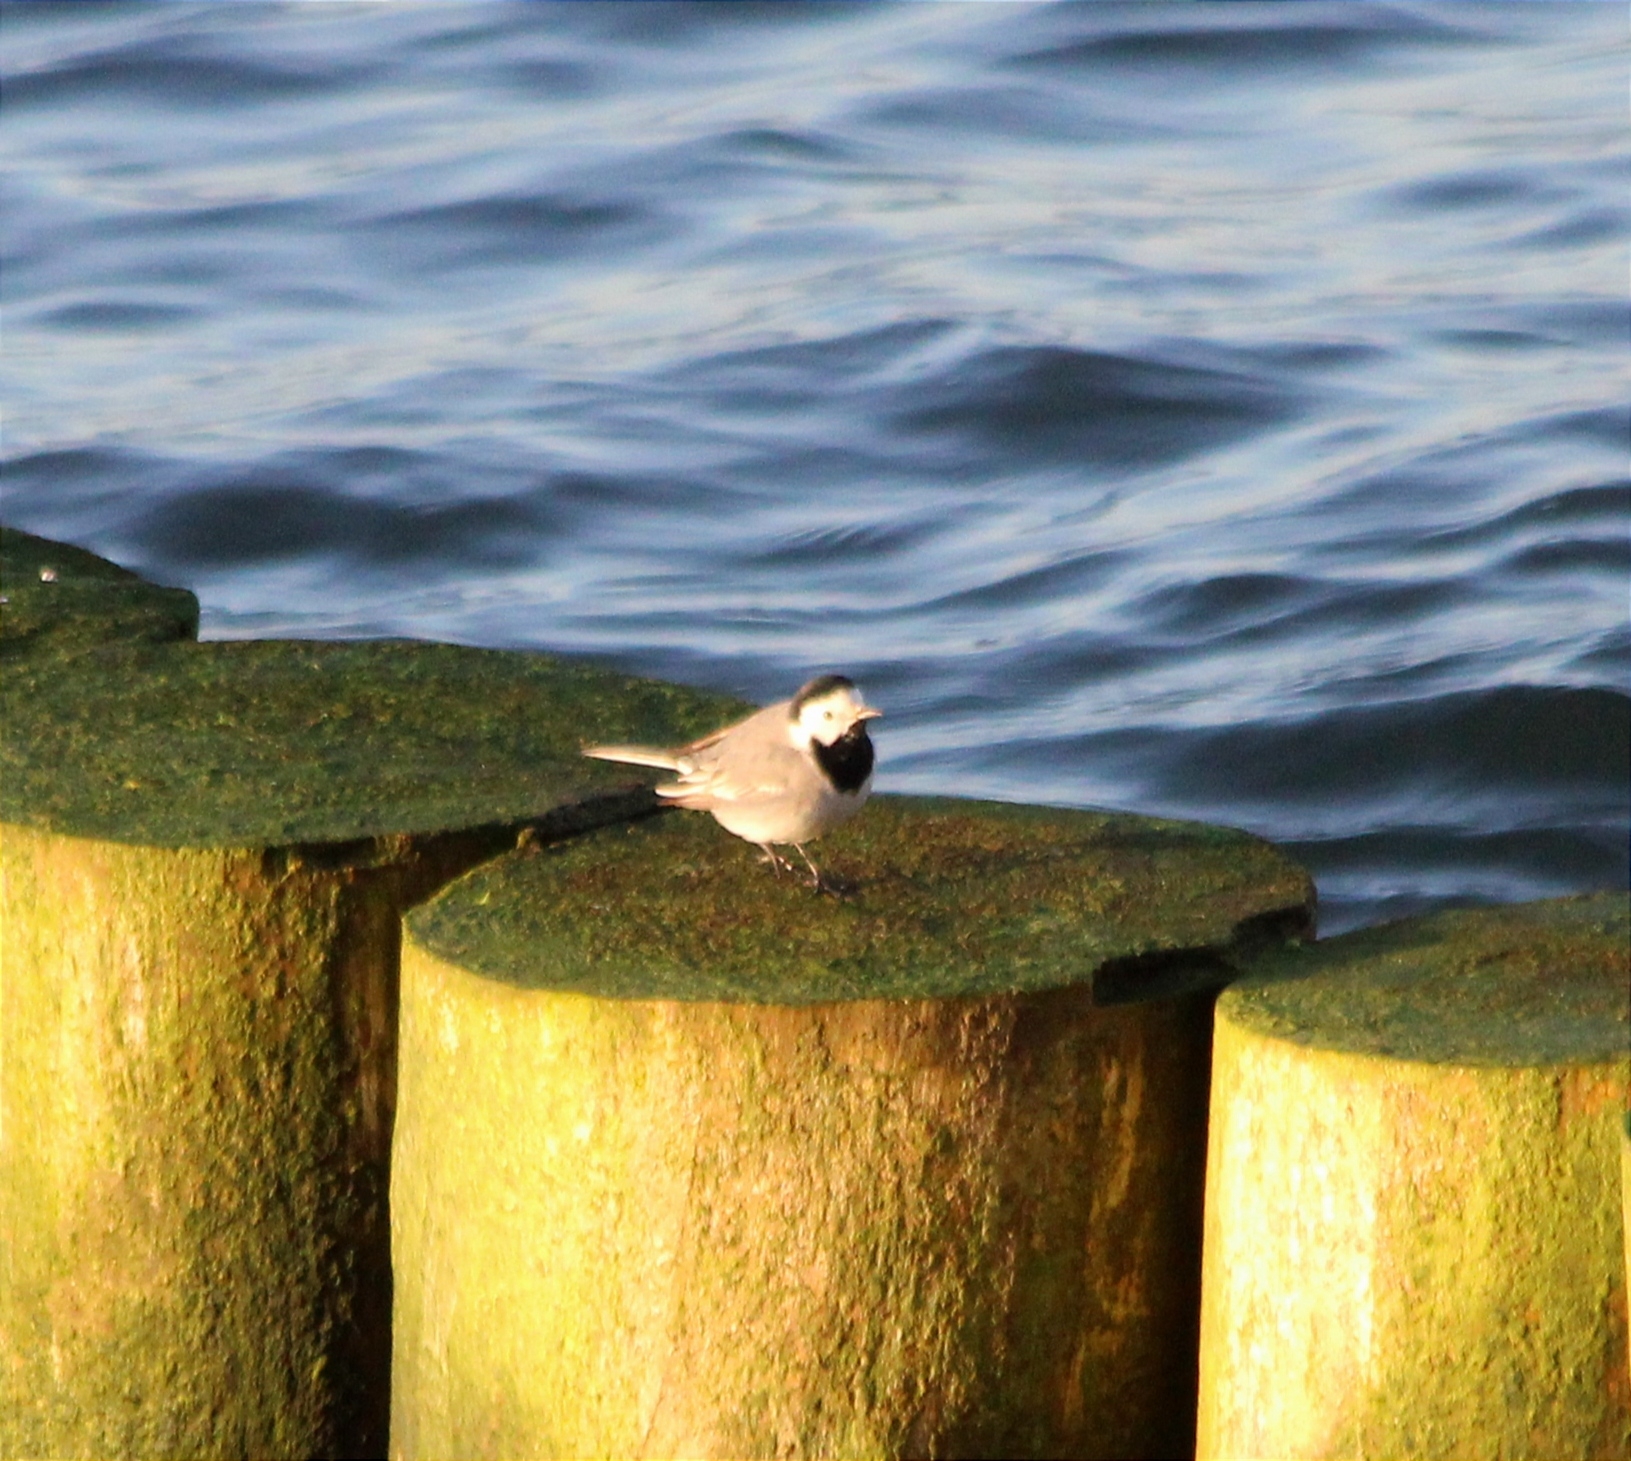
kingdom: Animalia
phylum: Chordata
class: Aves
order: Passeriformes
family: Motacillidae
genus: Motacilla
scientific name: Motacilla alba
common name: White wagtail
